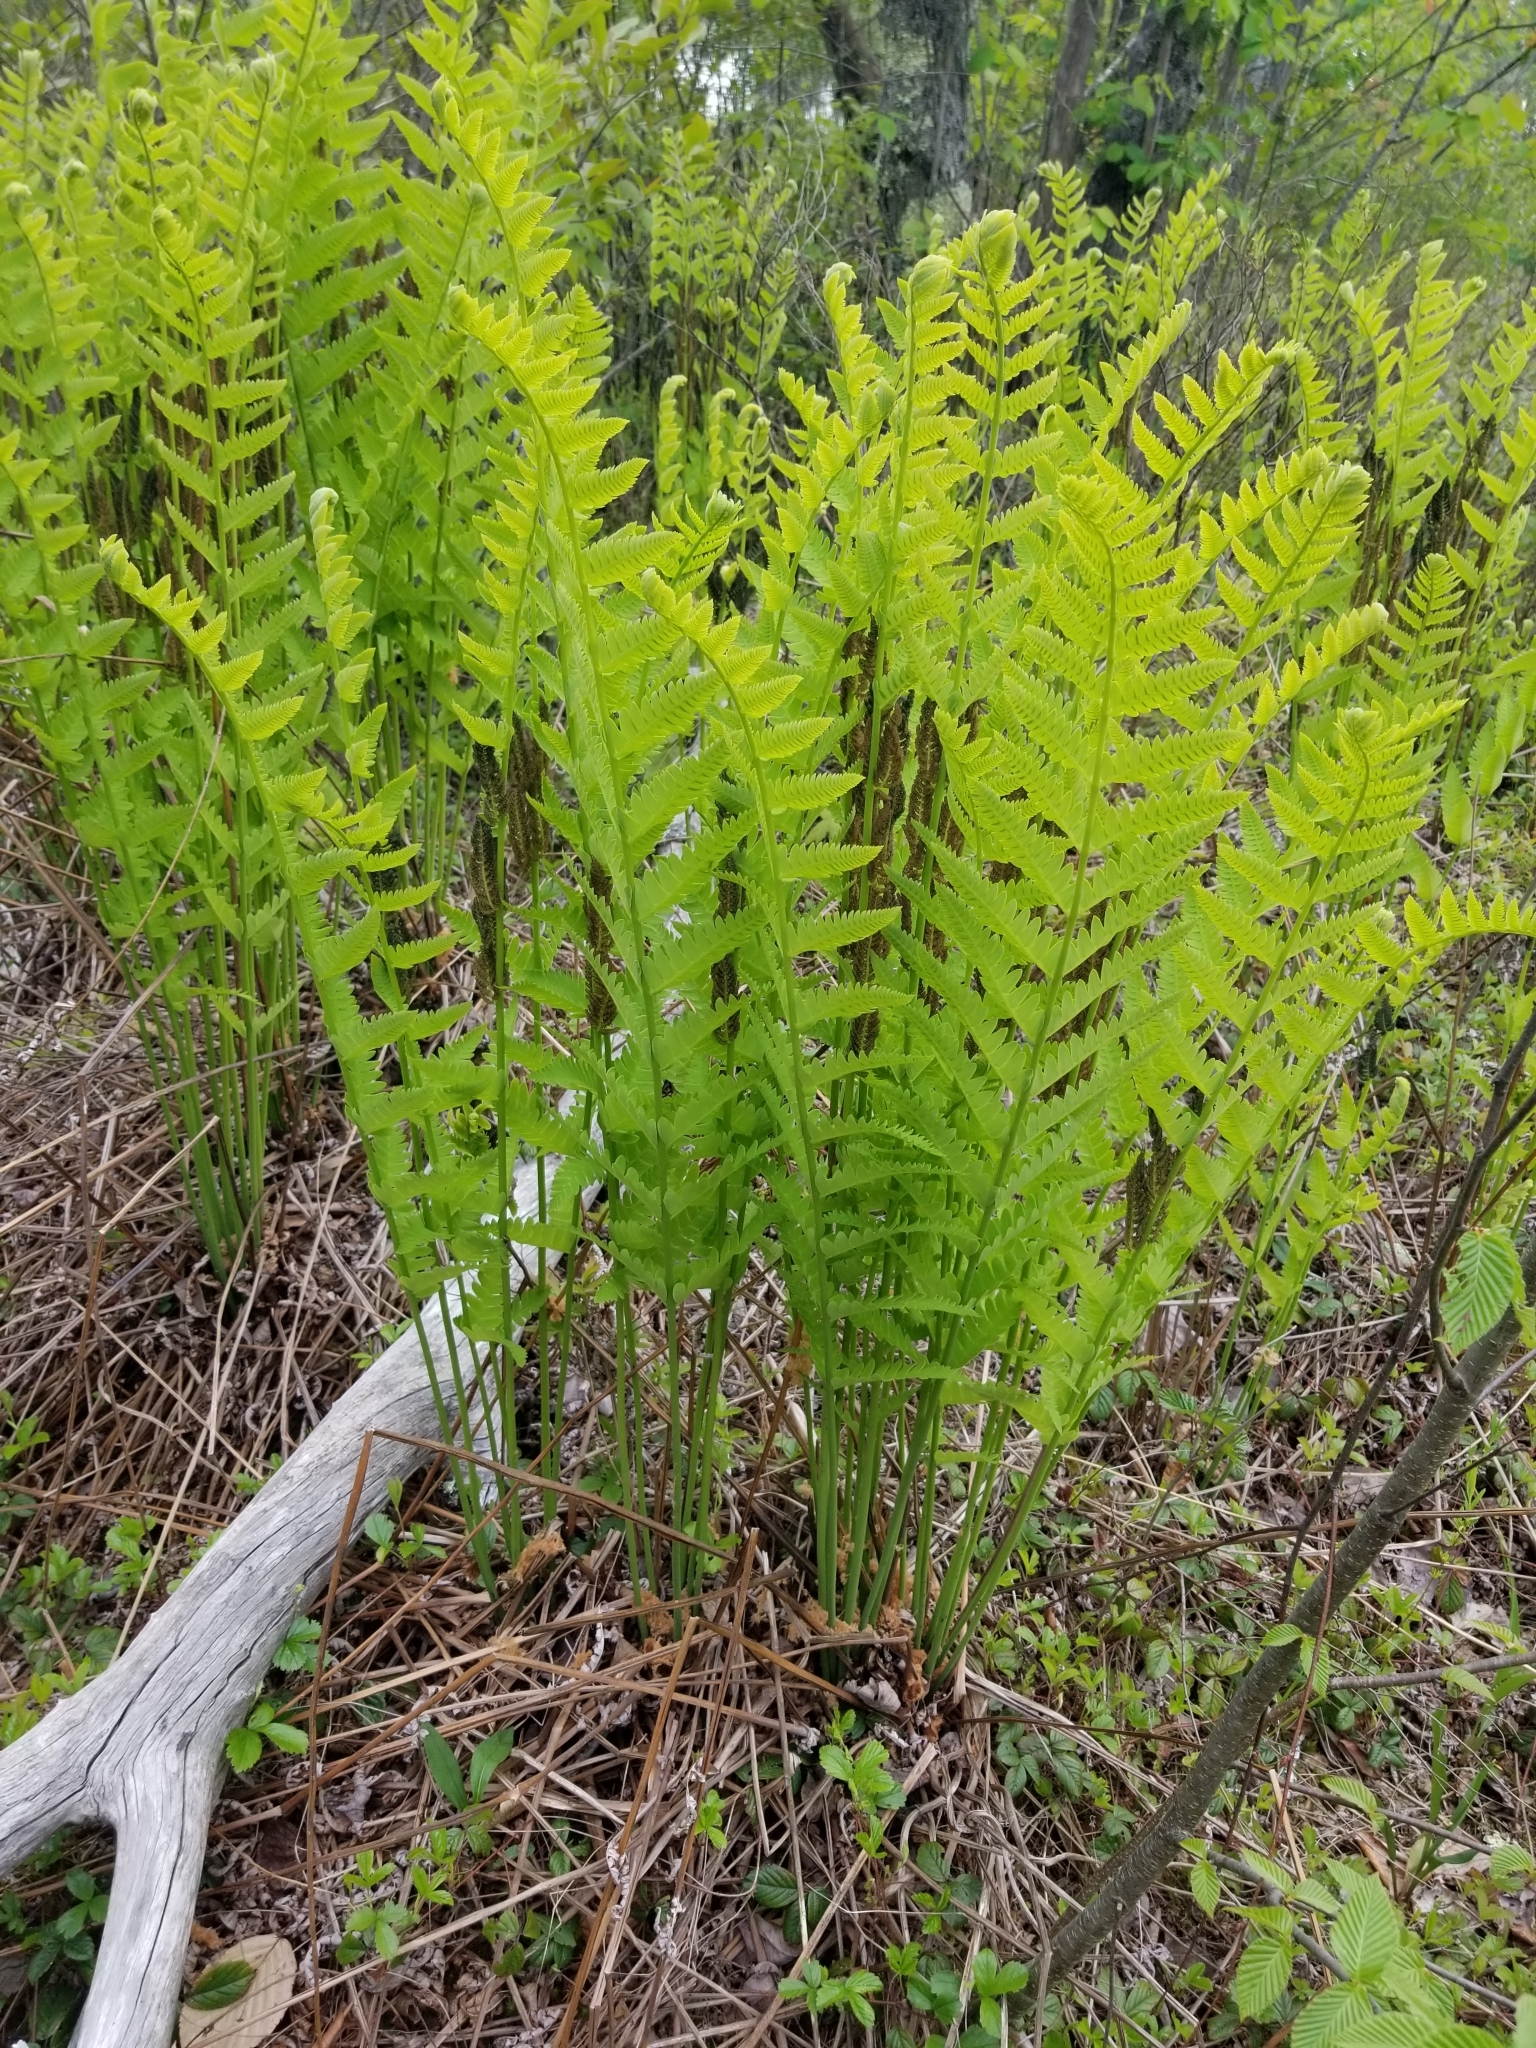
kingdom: Plantae
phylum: Tracheophyta
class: Polypodiopsida
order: Osmundales
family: Osmundaceae
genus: Claytosmunda
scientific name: Claytosmunda claytoniana
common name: Clayton's fern
